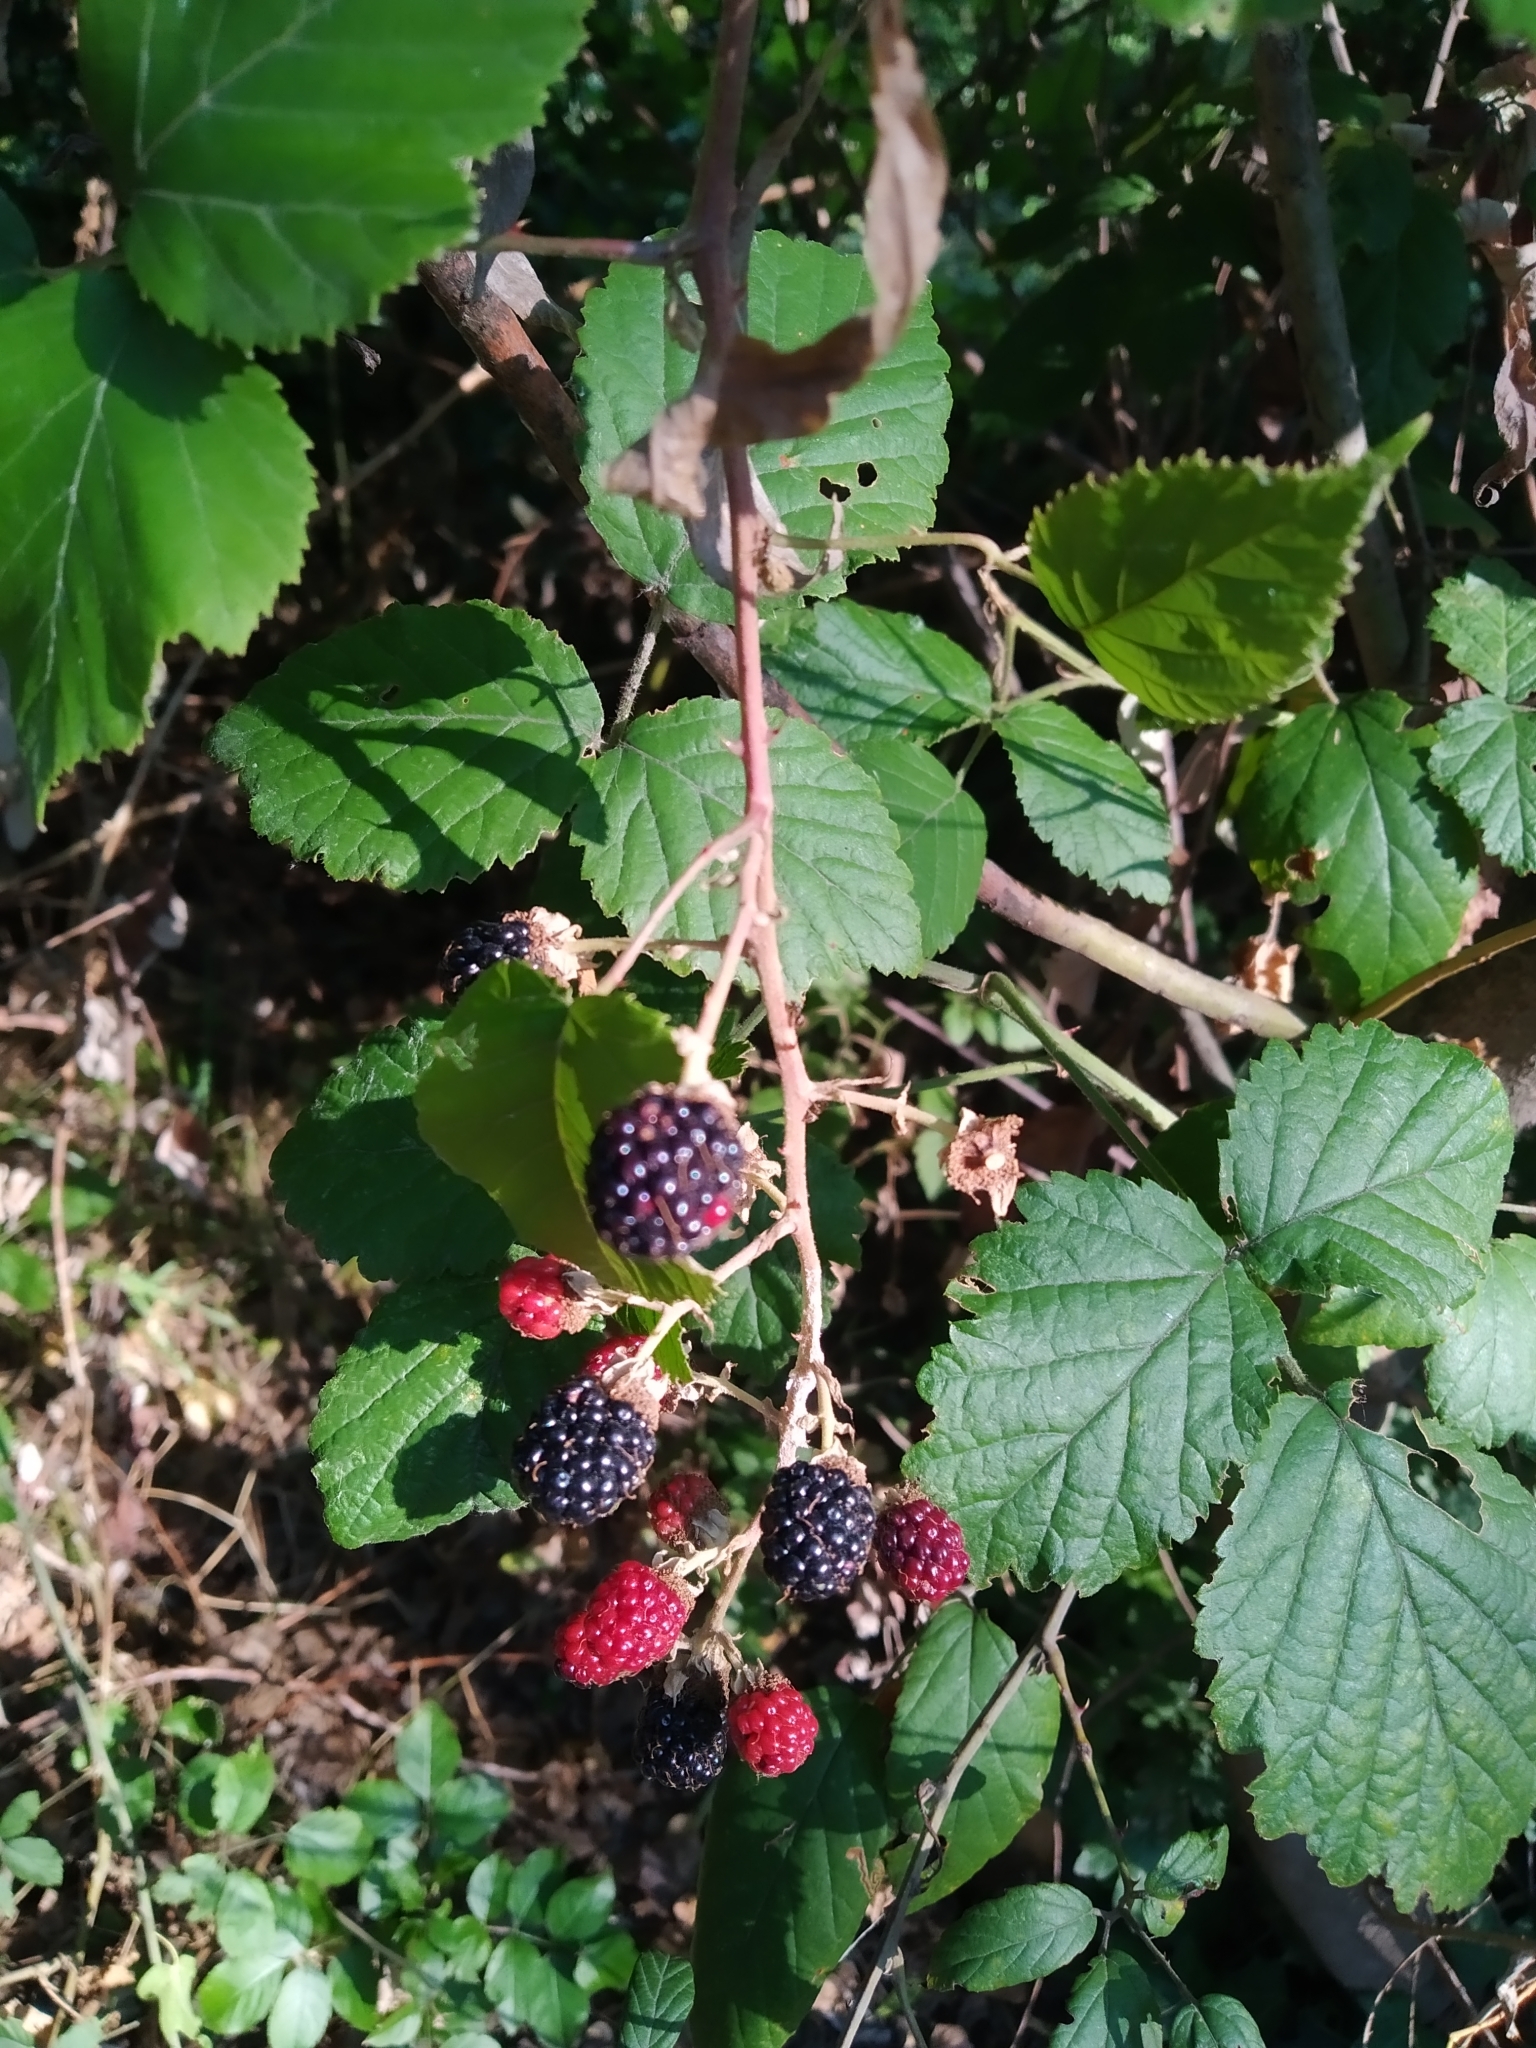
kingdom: Plantae
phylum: Tracheophyta
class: Magnoliopsida
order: Rosales
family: Rosaceae
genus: Rubus
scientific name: Rubus ulmifolius
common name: Elmleaf blackberry
